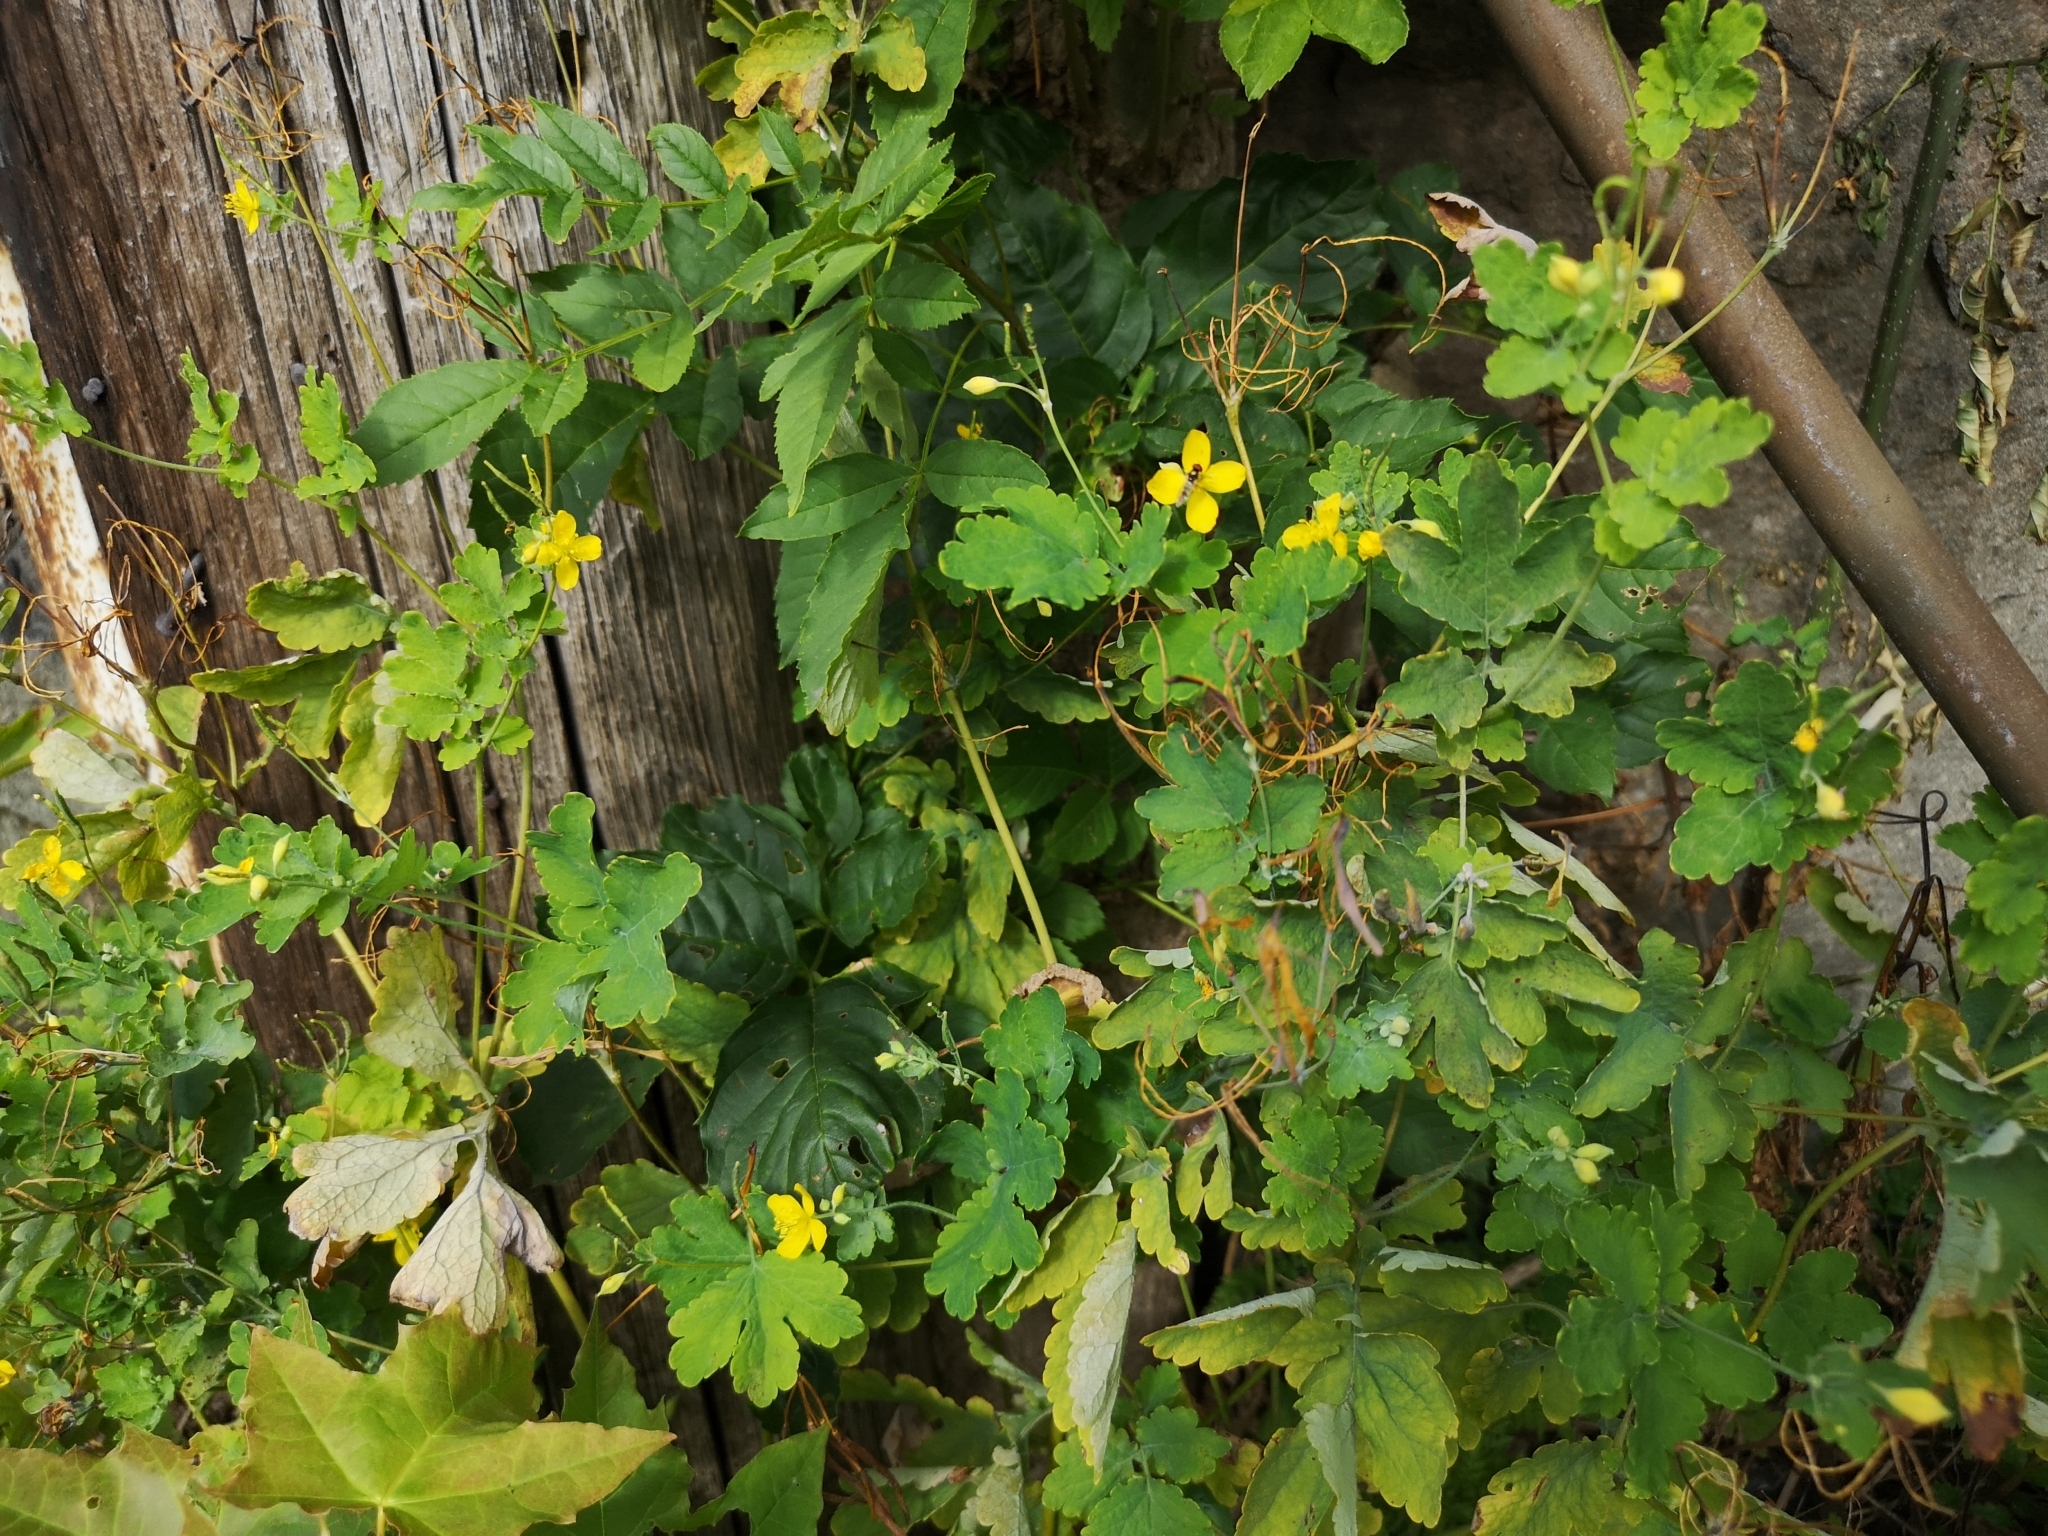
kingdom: Plantae
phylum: Tracheophyta
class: Magnoliopsida
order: Ranunculales
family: Papaveraceae
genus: Chelidonium
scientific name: Chelidonium majus
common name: Greater celandine
